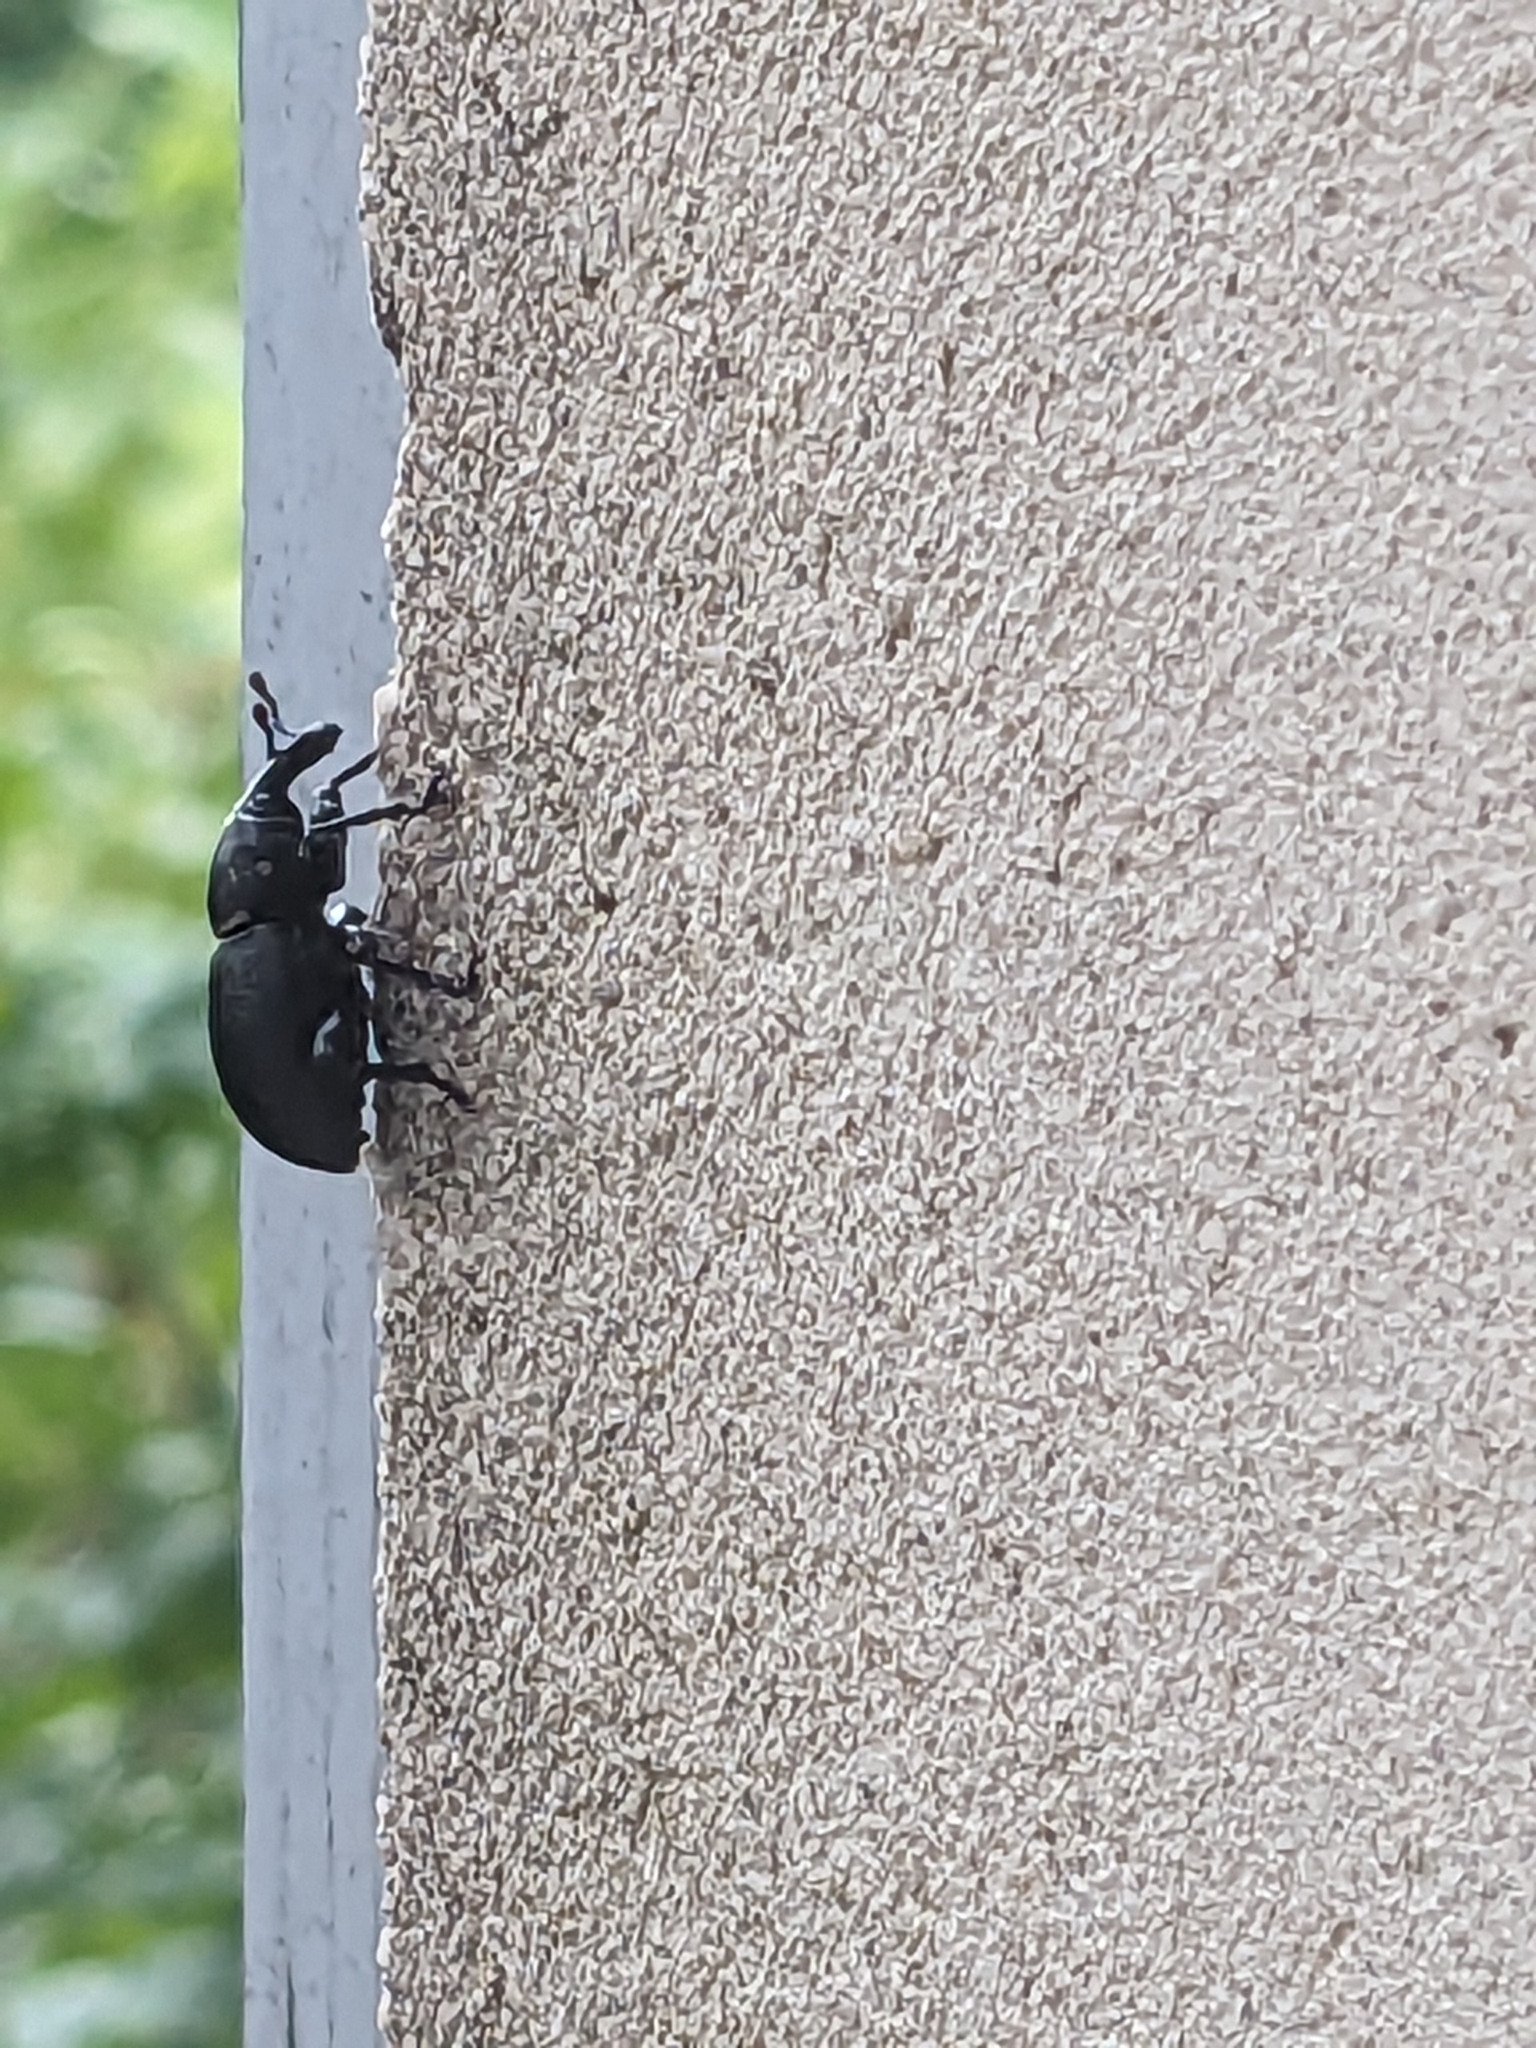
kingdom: Animalia
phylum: Arthropoda
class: Insecta
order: Coleoptera
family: Curculionidae
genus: Liparus
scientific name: Liparus coronatus
